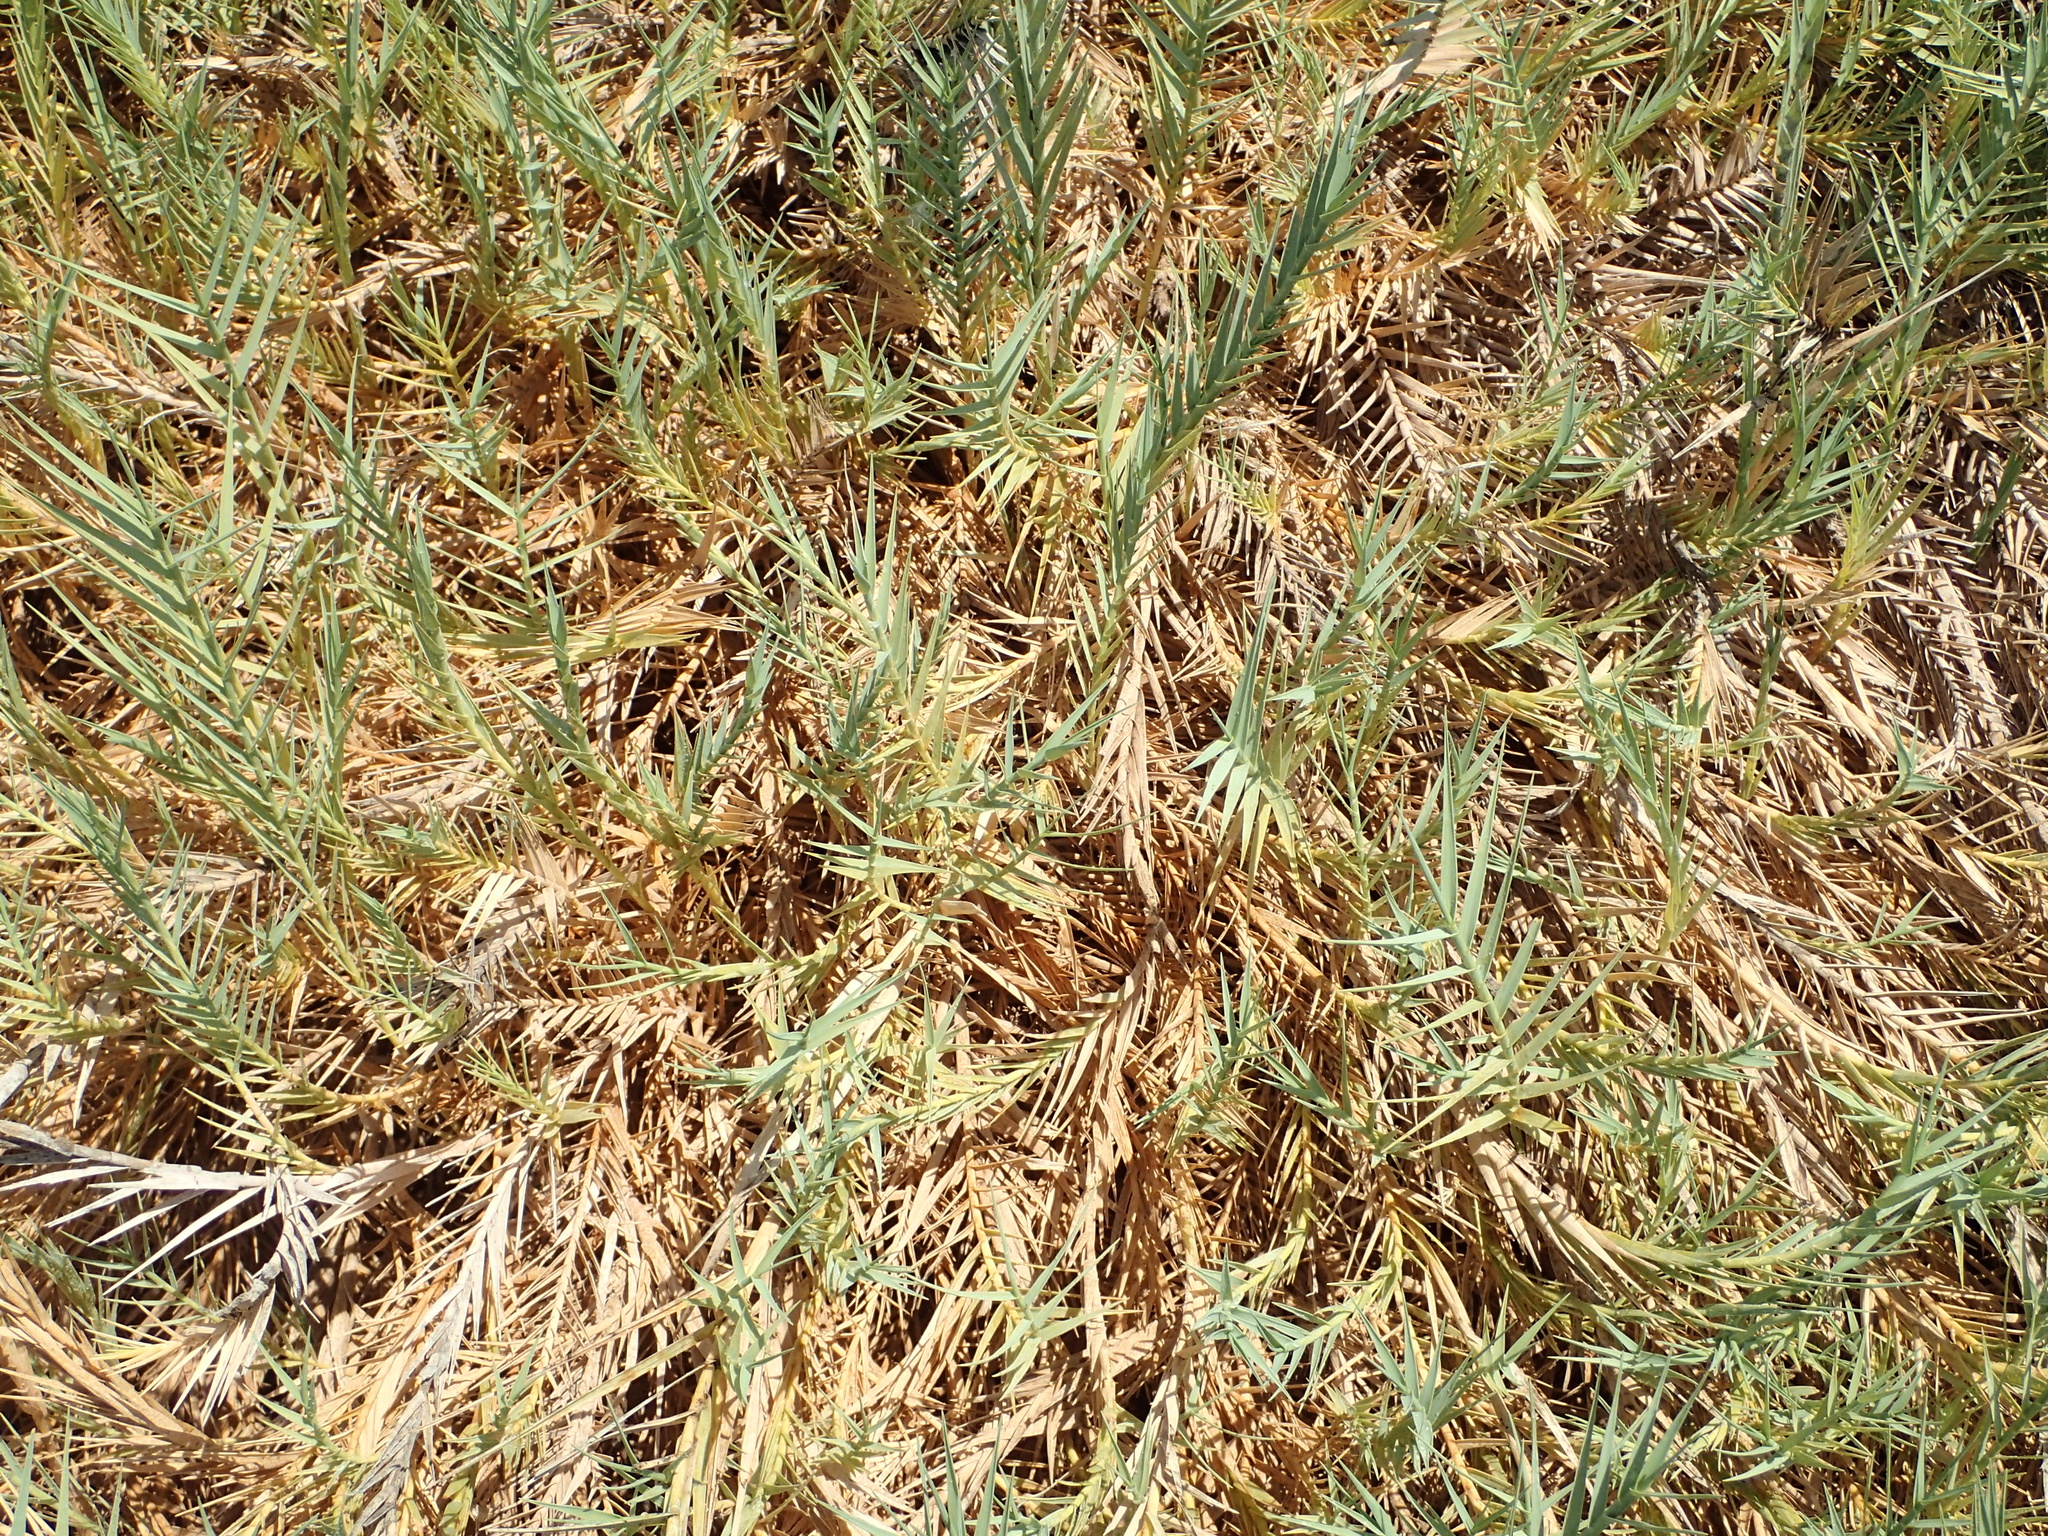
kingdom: Plantae
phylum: Tracheophyta
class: Liliopsida
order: Poales
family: Poaceae
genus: Distichlis
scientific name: Distichlis spicata
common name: Saltgrass
